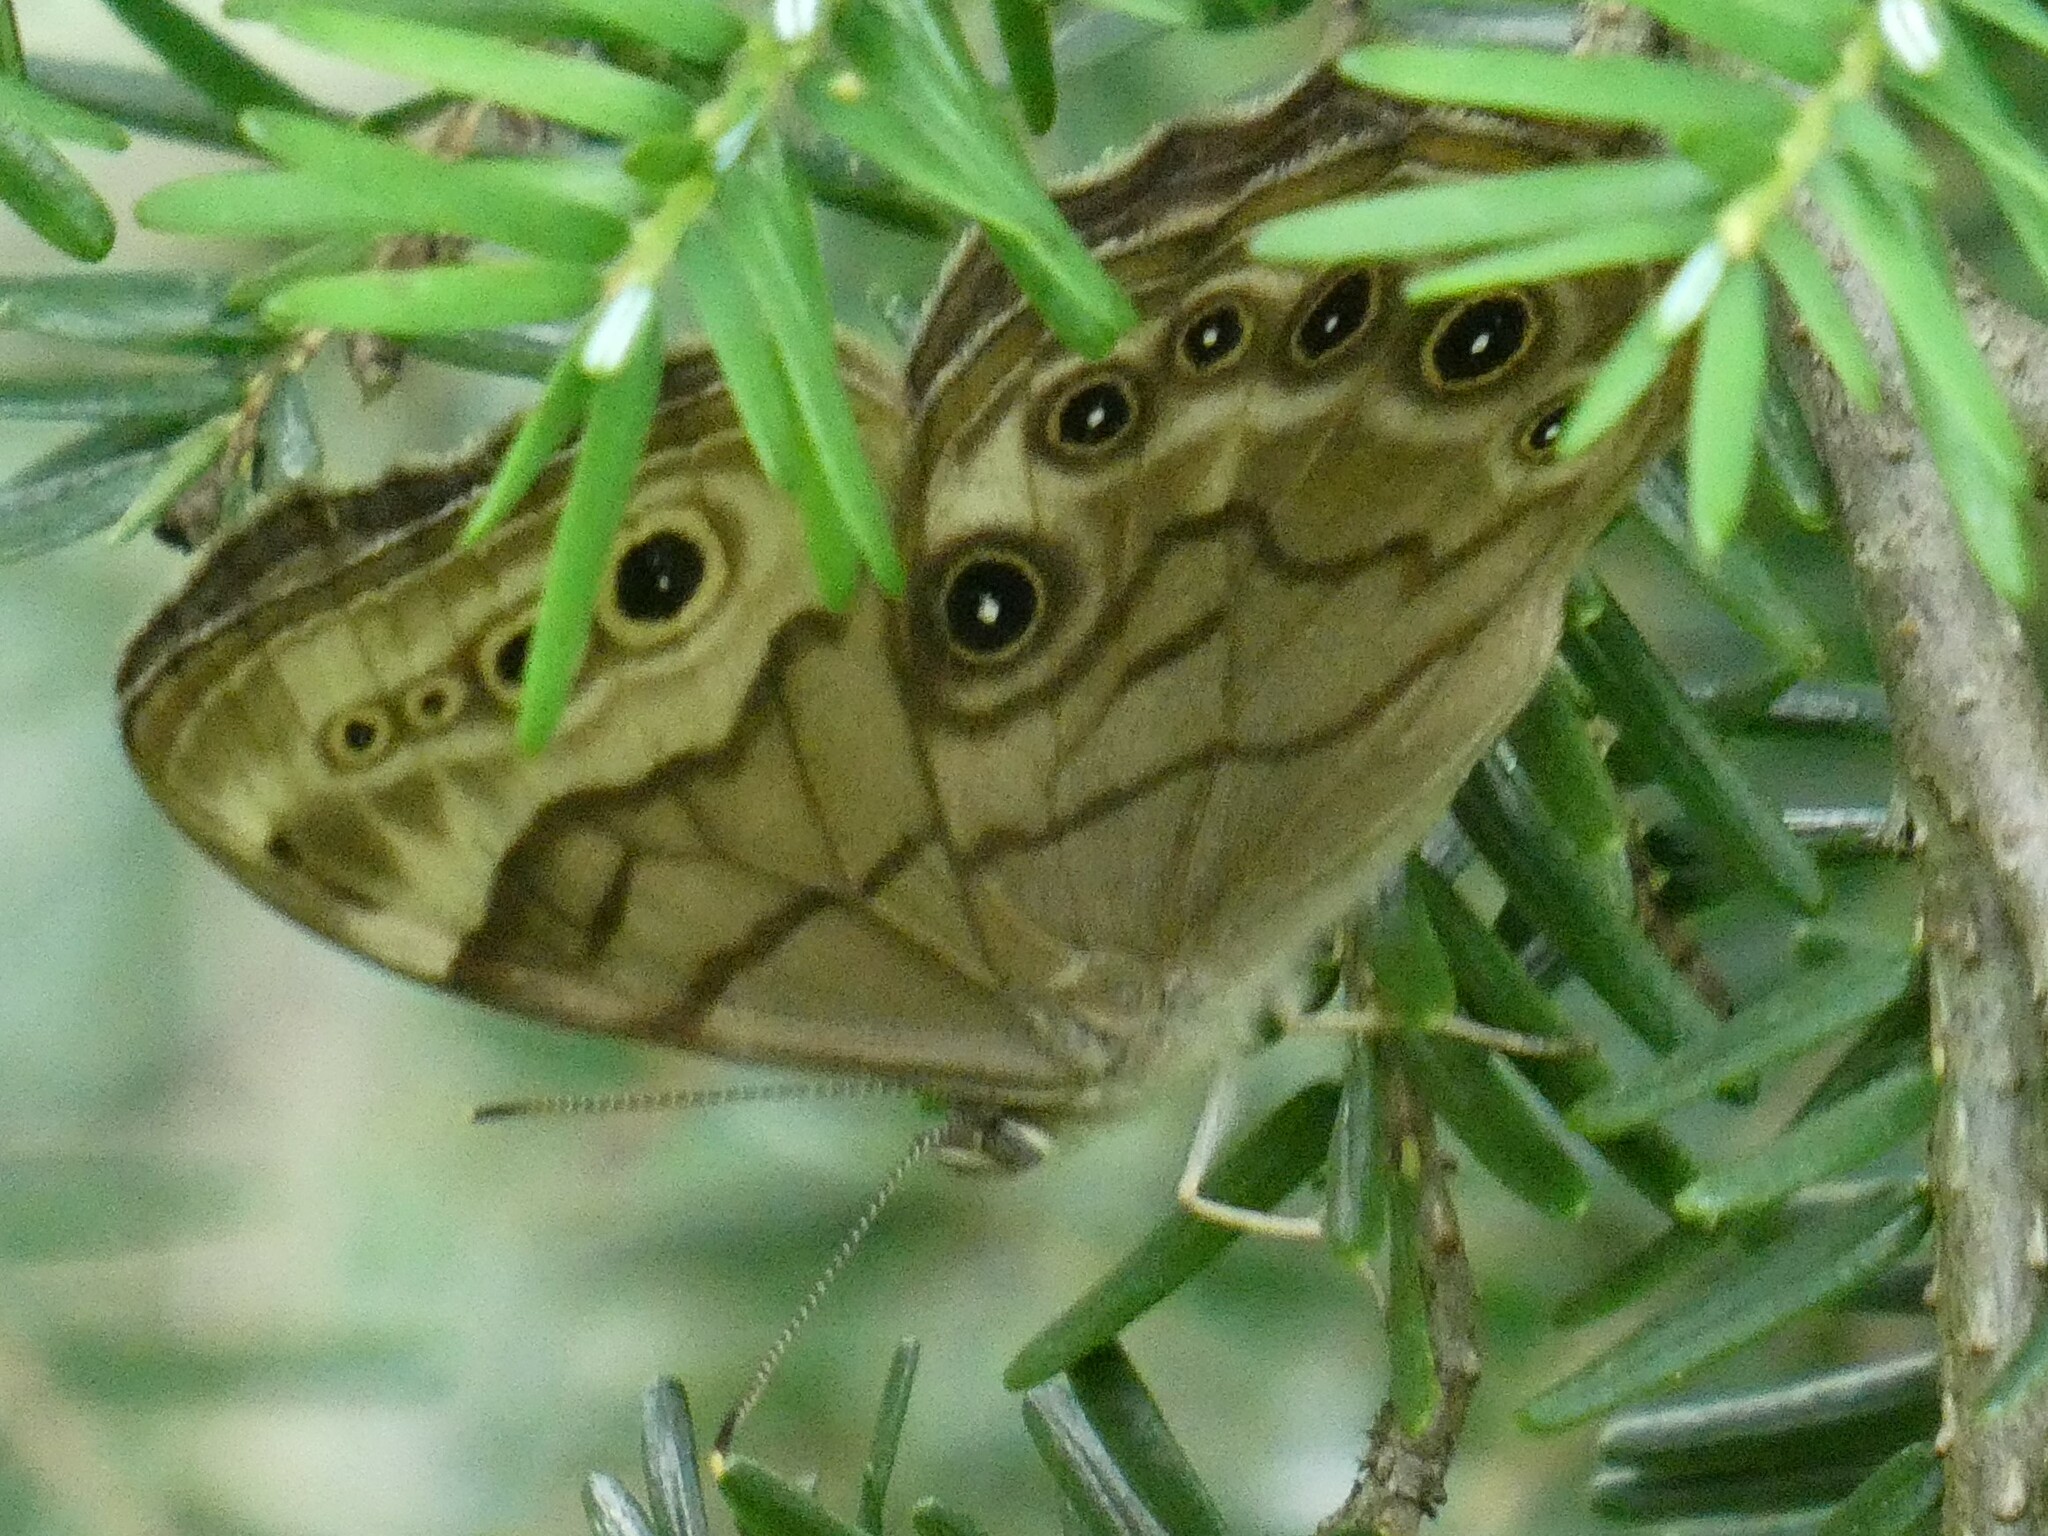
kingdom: Animalia
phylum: Arthropoda
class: Insecta
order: Lepidoptera
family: Nymphalidae
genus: Lethe
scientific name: Lethe anthedon
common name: Northern pearly-eye
